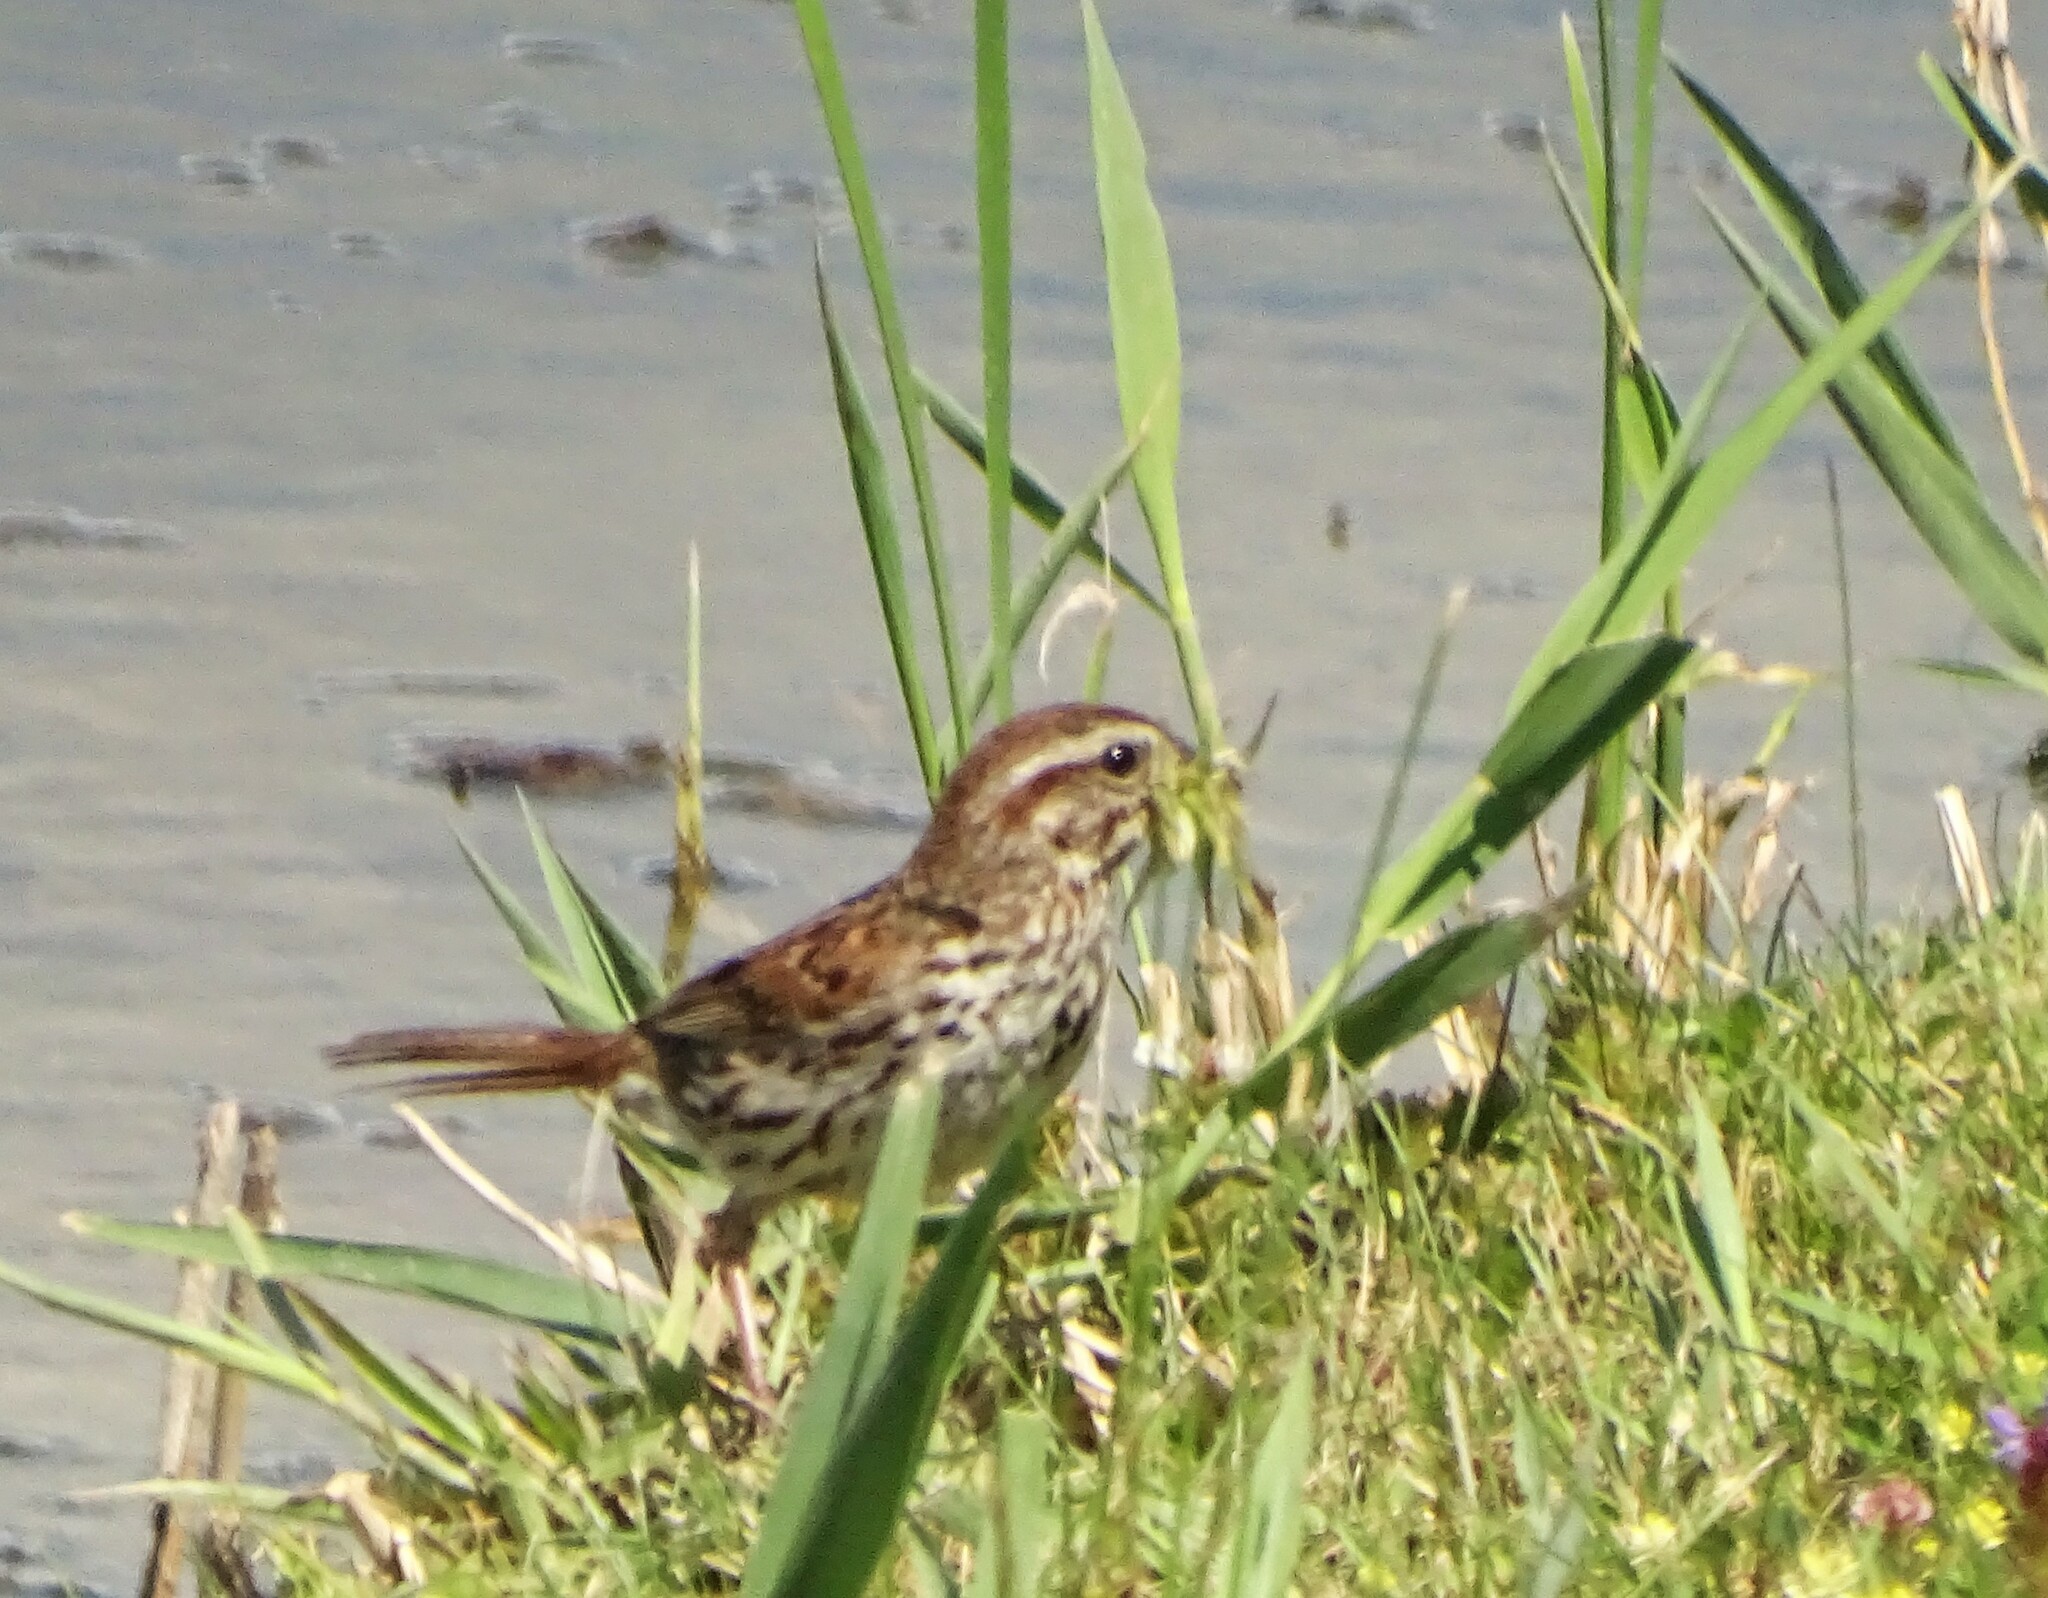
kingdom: Animalia
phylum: Chordata
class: Aves
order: Passeriformes
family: Passerellidae
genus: Melospiza
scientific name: Melospiza melodia
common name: Song sparrow
